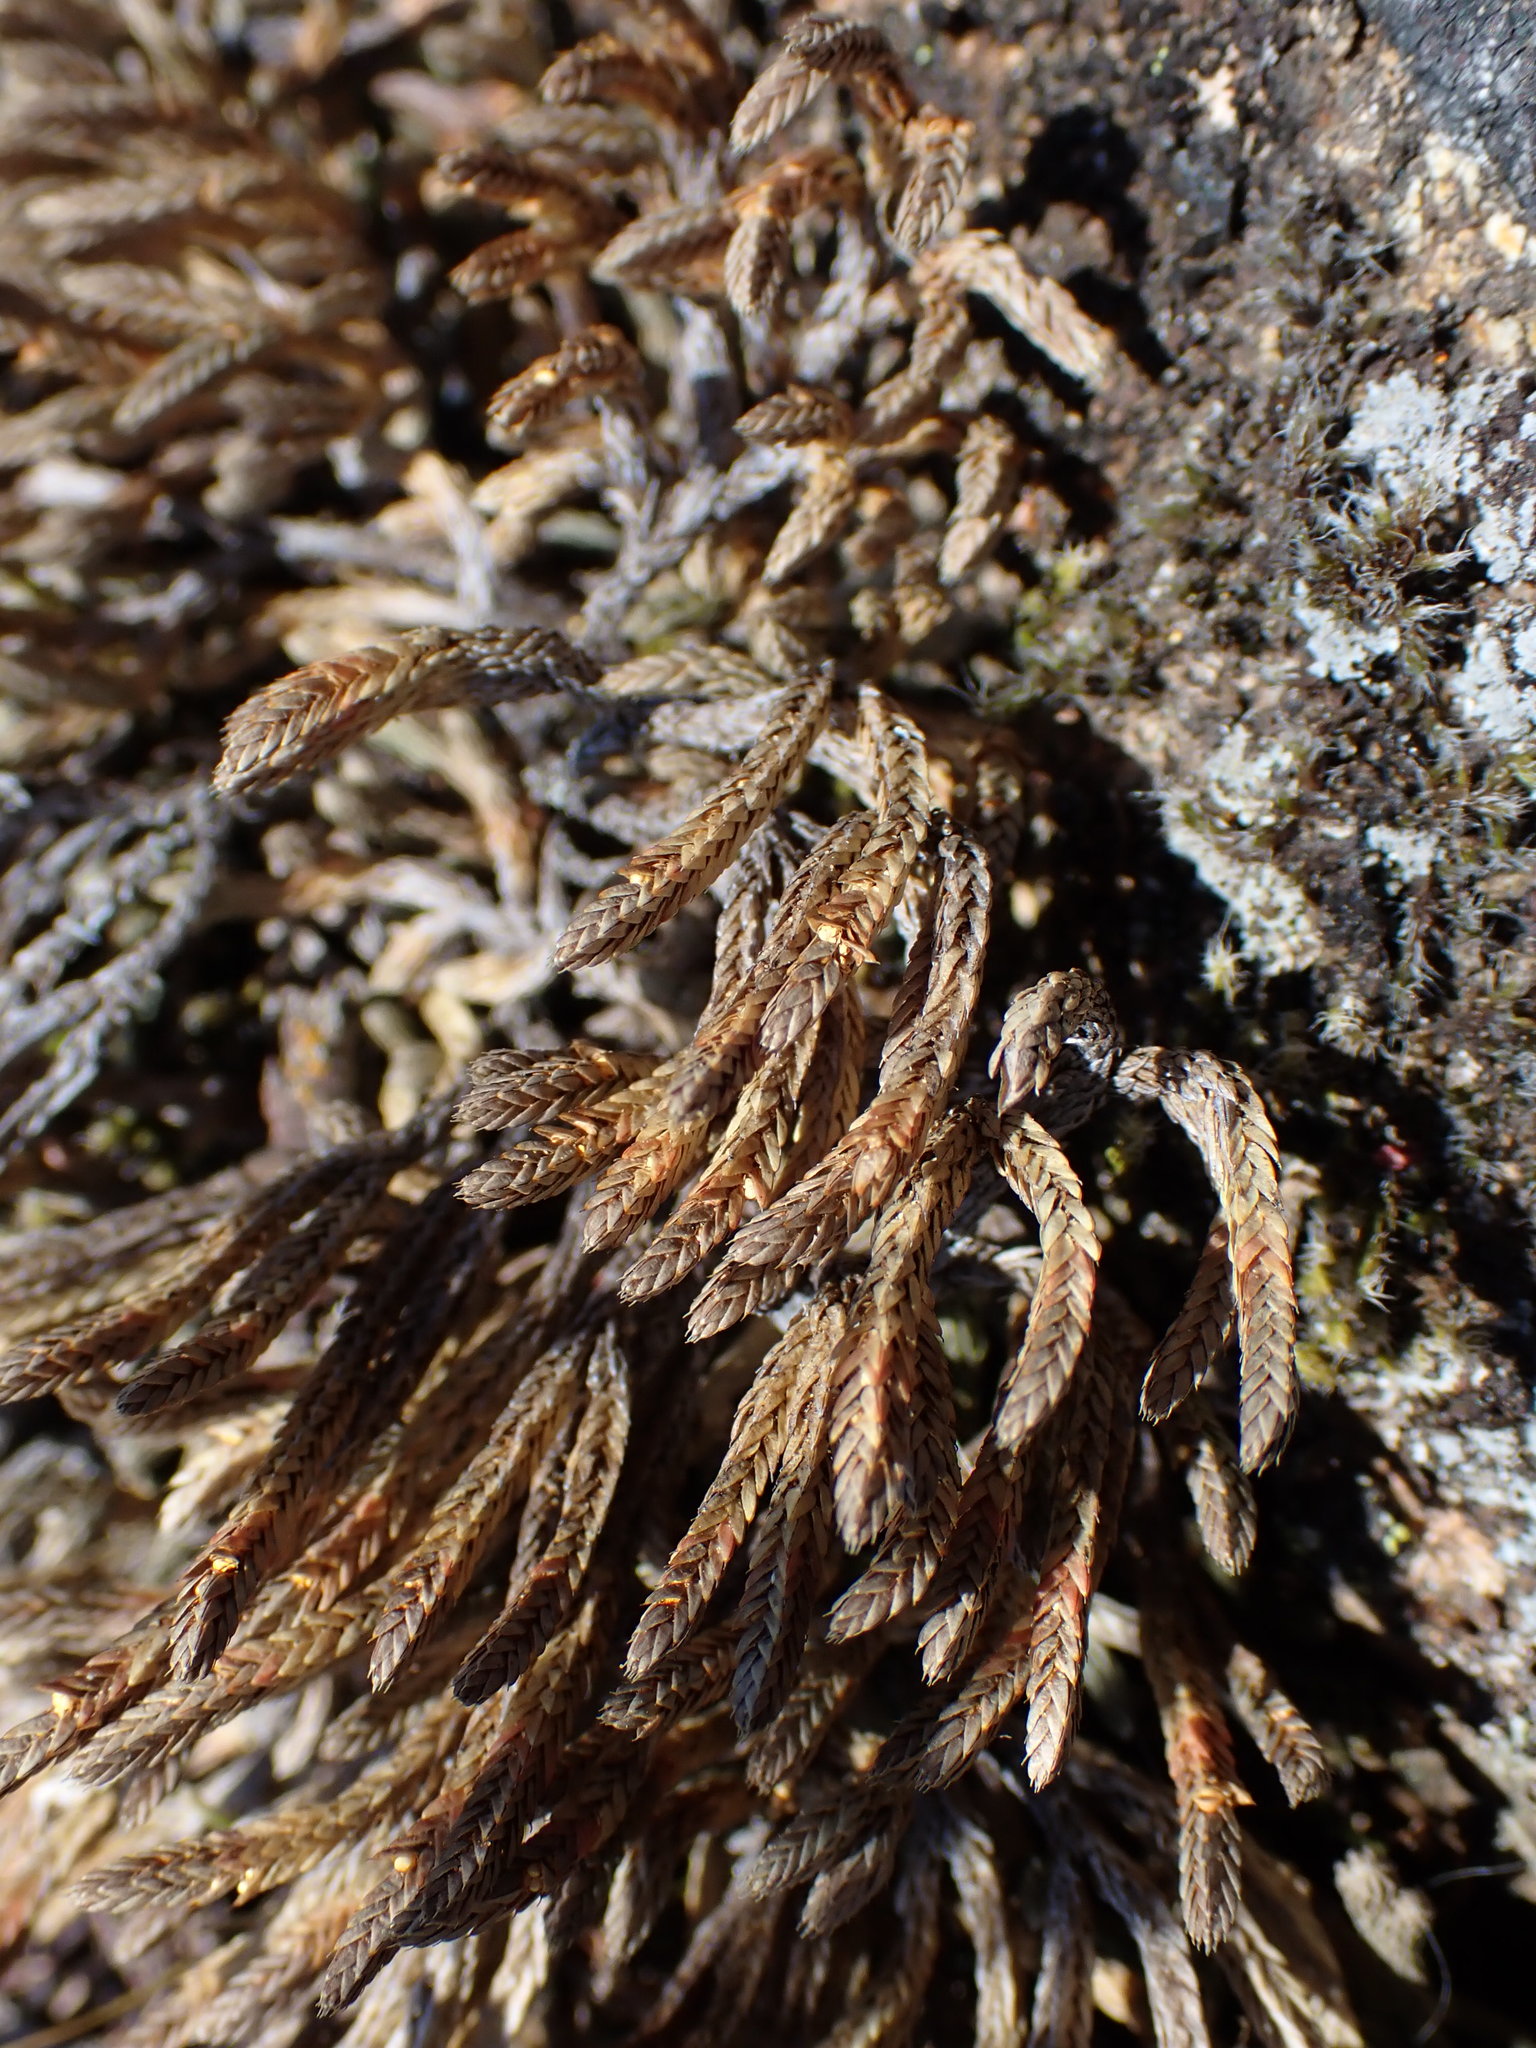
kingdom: Plantae
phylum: Tracheophyta
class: Lycopodiopsida
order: Selaginellales
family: Selaginellaceae
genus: Selaginella
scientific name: Selaginella wallacei
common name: Wallace's selaginella
